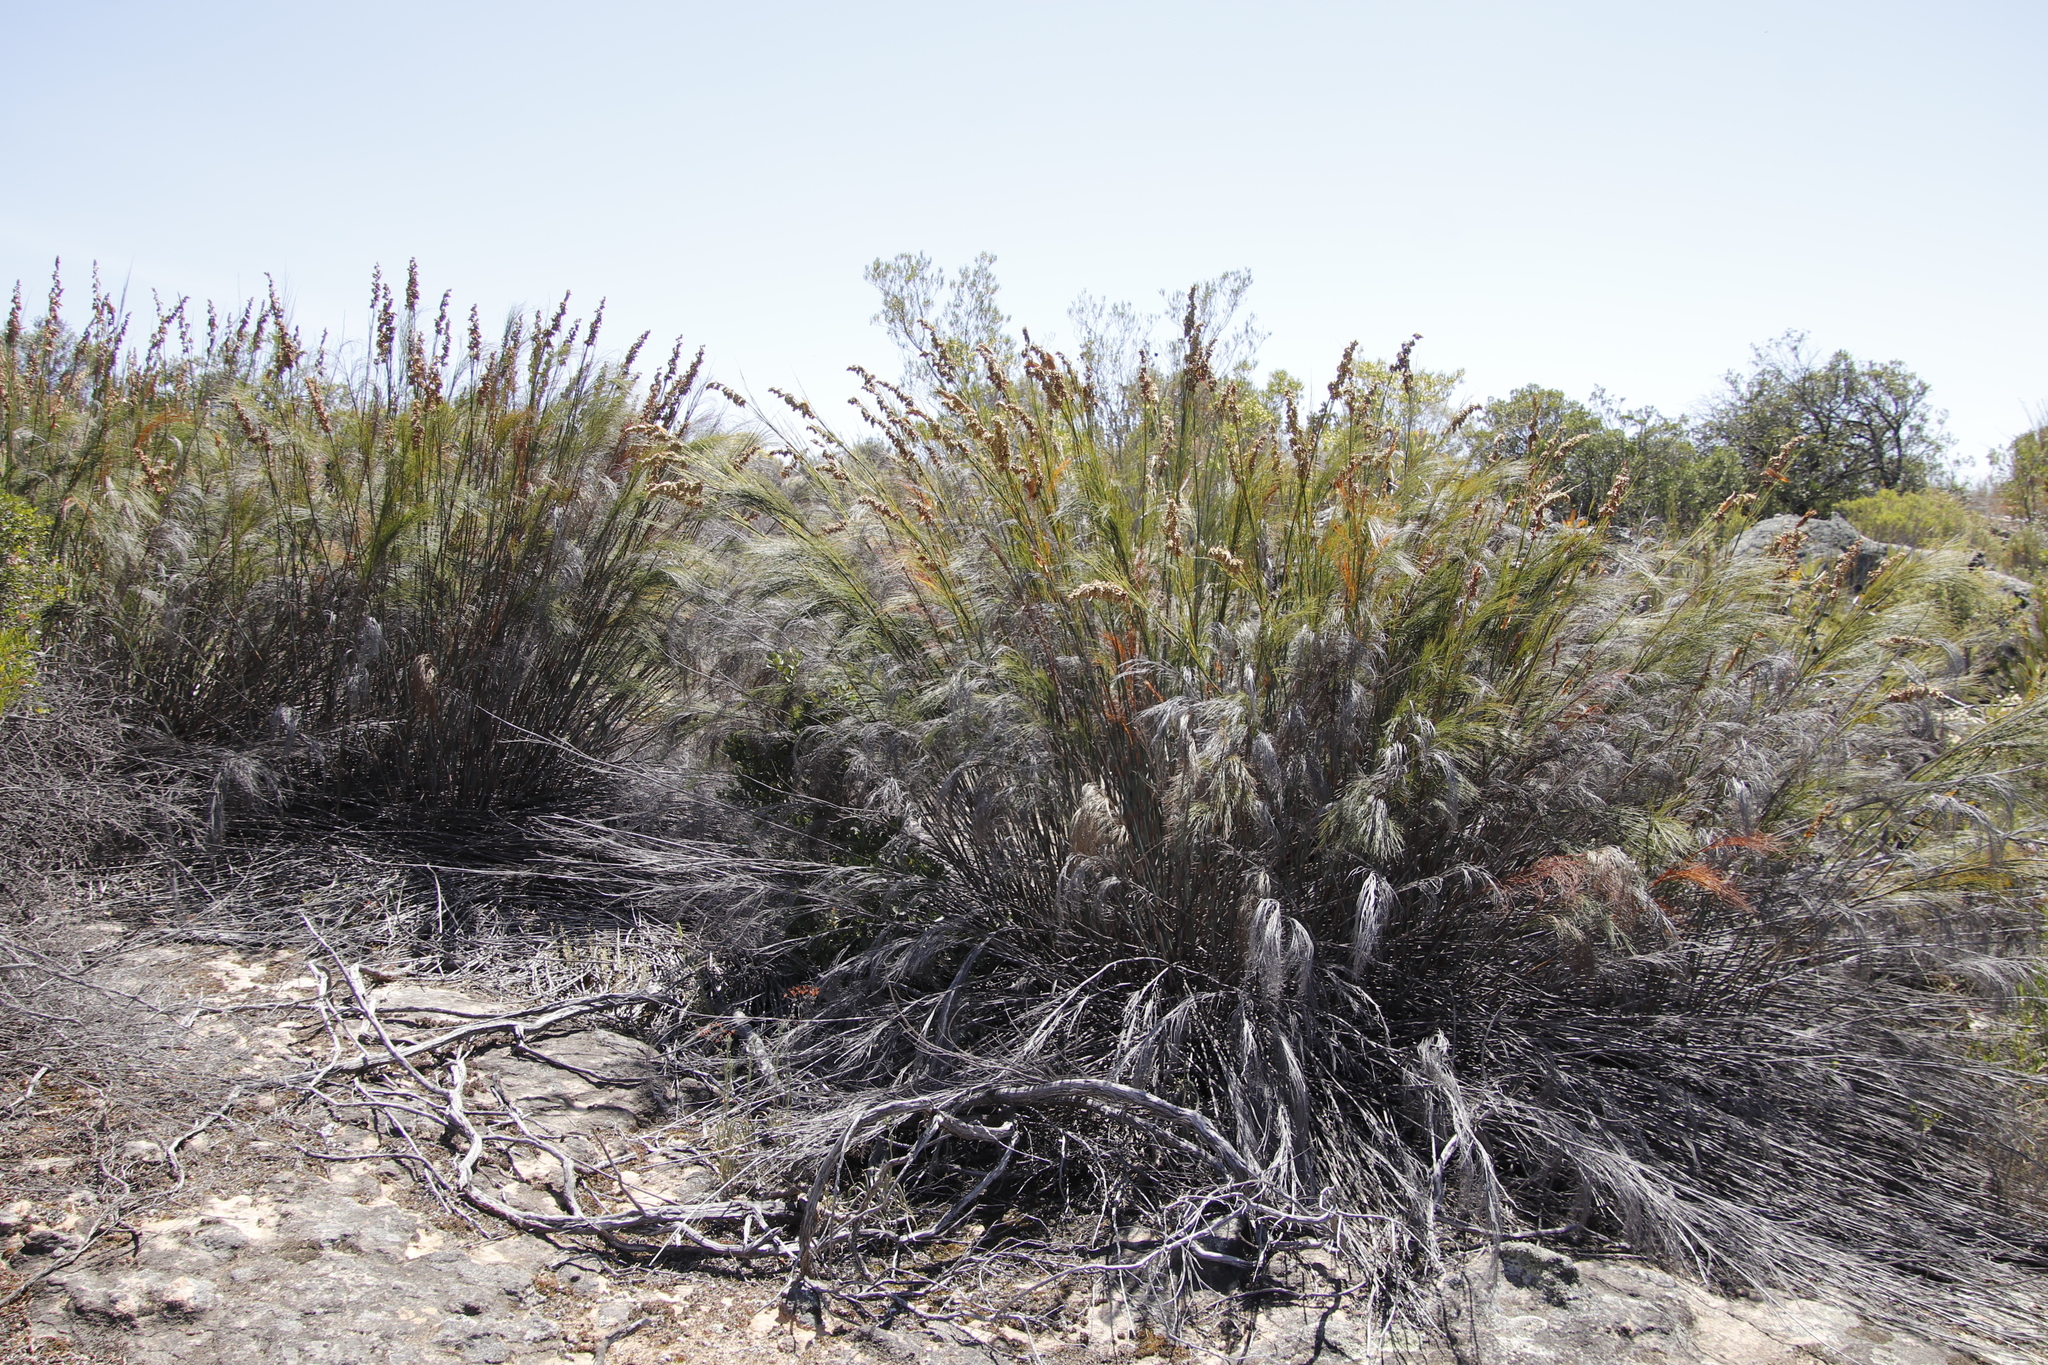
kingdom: Plantae
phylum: Tracheophyta
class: Liliopsida
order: Poales
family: Restionaceae
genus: Cannomois
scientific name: Cannomois robusta
